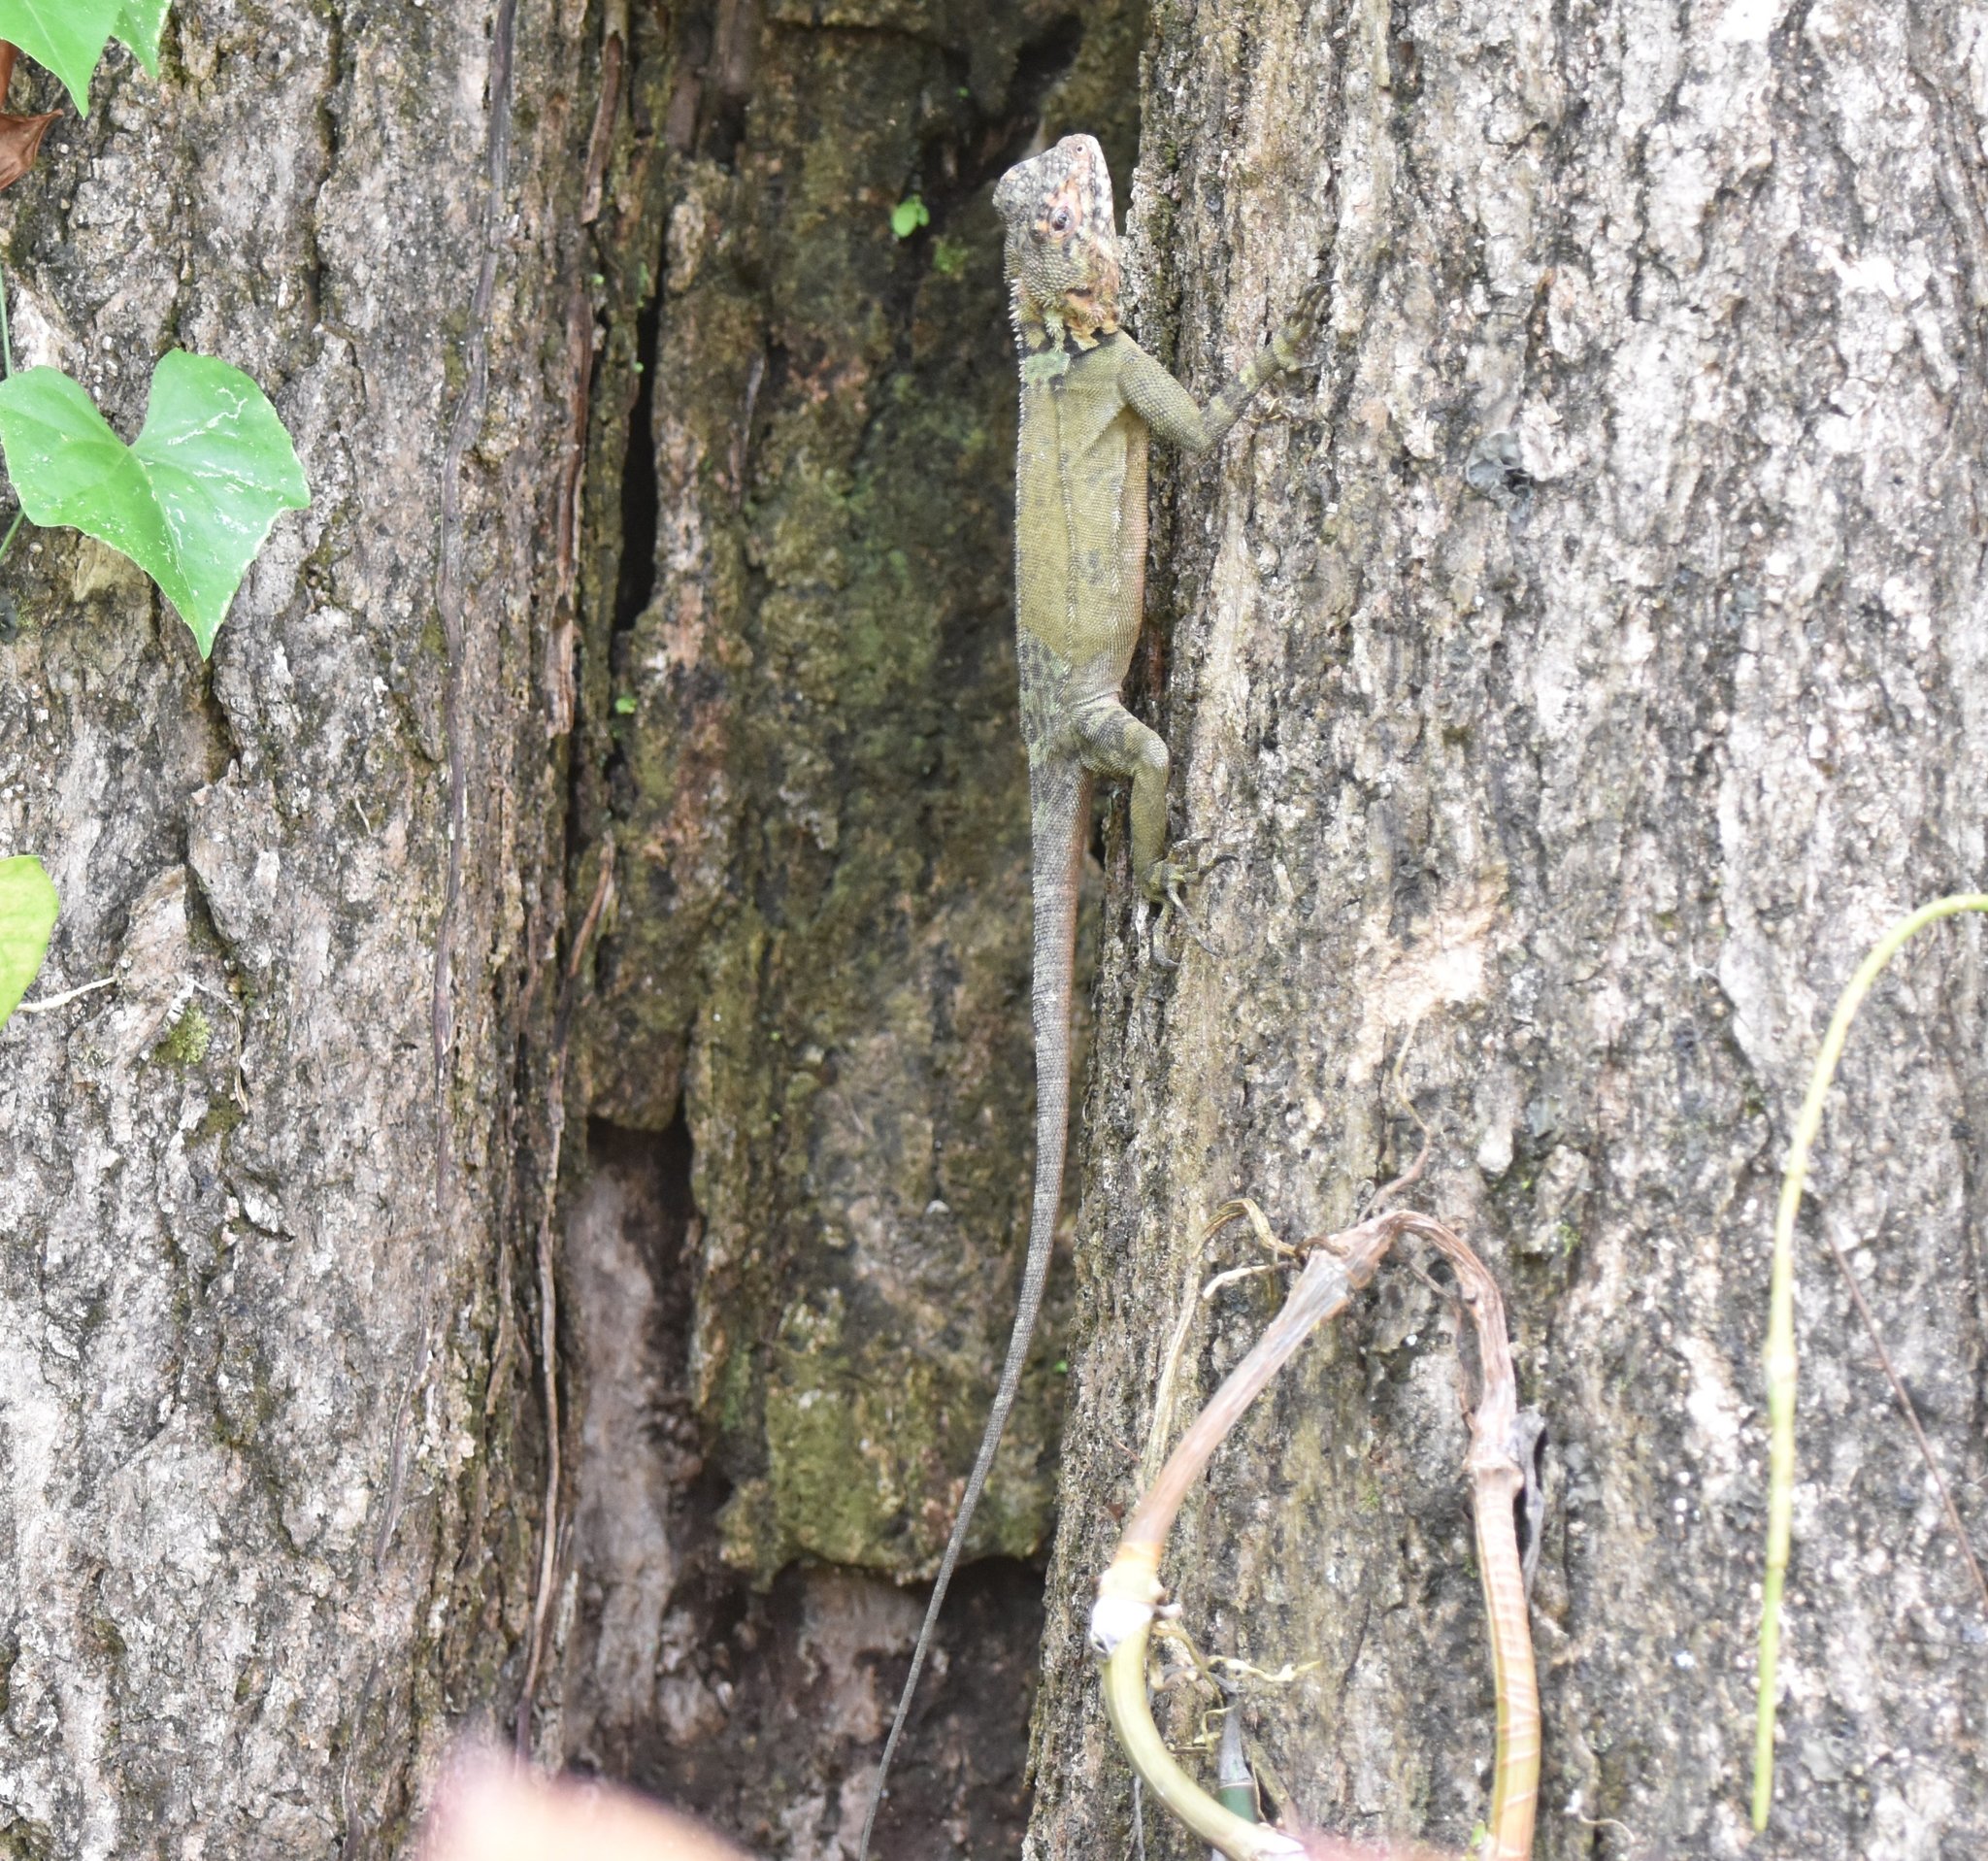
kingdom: Animalia
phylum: Chordata
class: Squamata
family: Tropiduridae
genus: Plica
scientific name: Plica caribeana
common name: Caribbean treerunner
